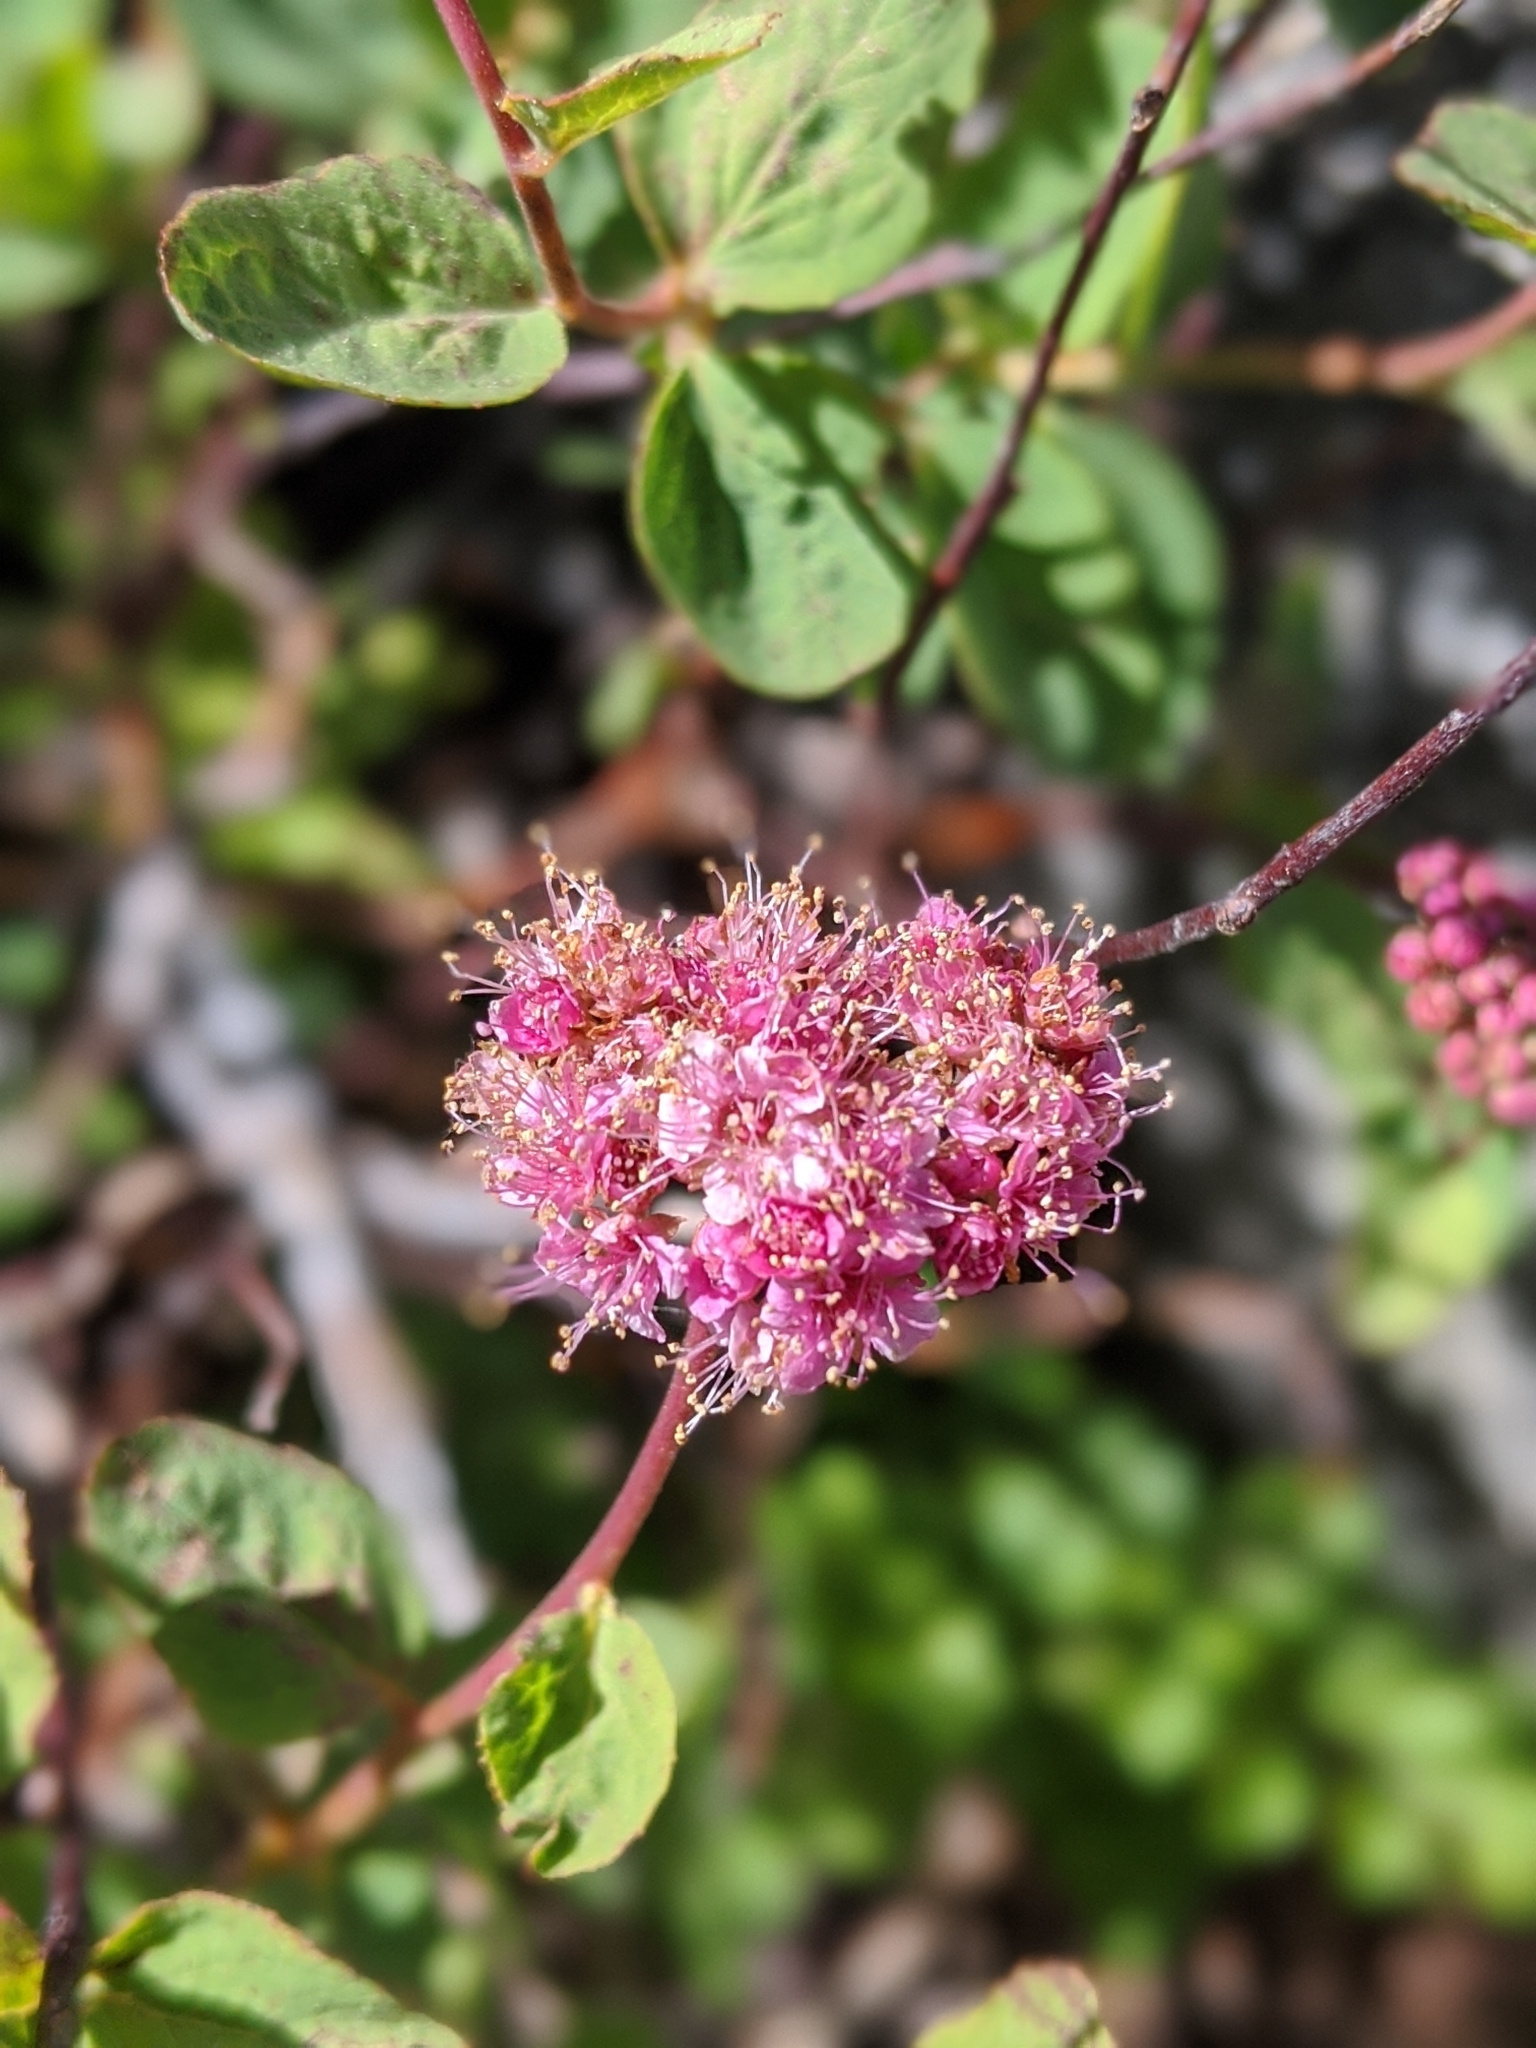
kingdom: Plantae
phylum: Tracheophyta
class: Magnoliopsida
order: Rosales
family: Rosaceae
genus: Spiraea
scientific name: Spiraea splendens
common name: Subalpine meadowsweet
